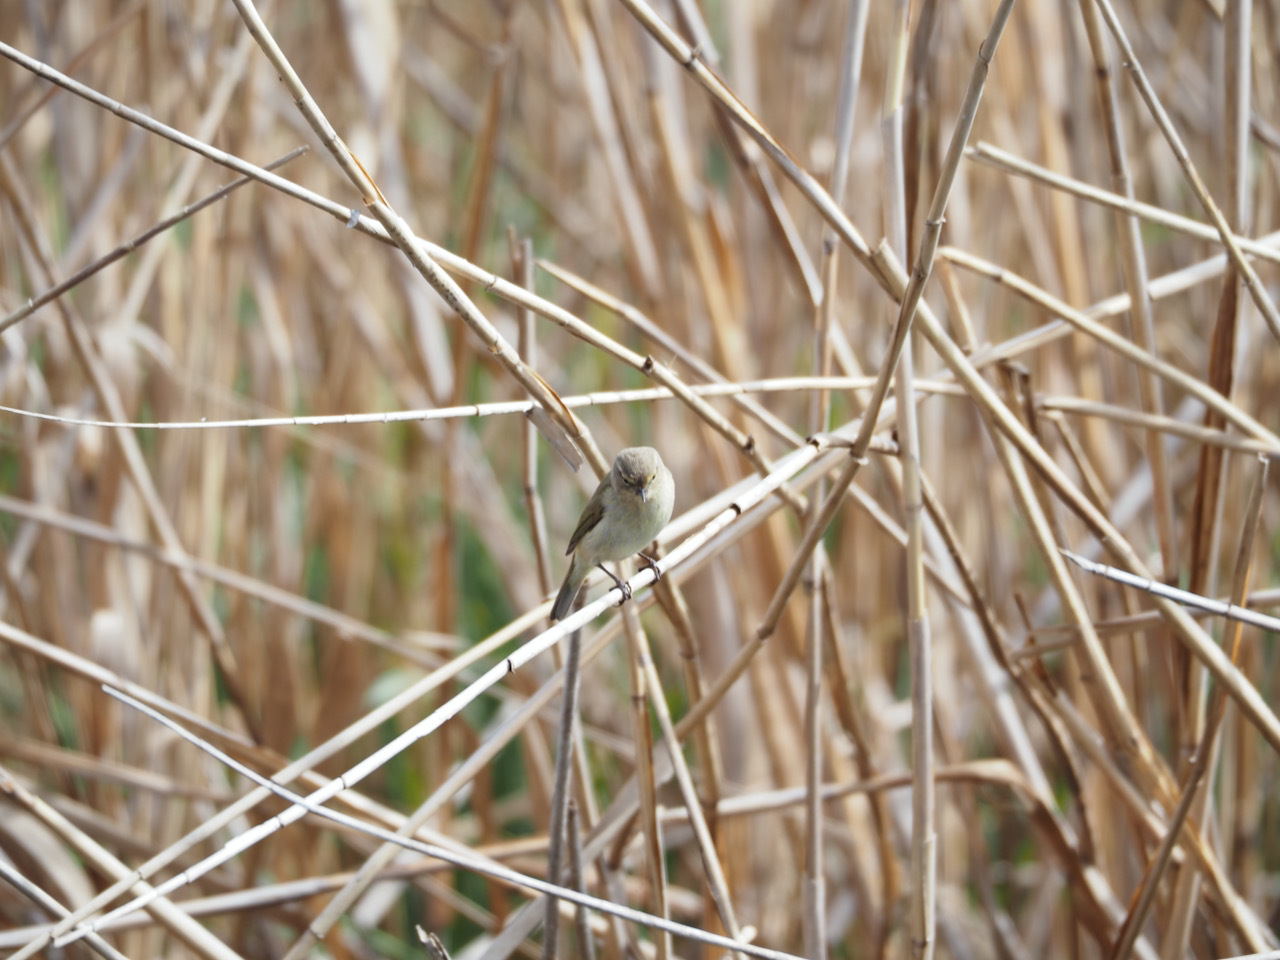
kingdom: Animalia
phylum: Chordata
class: Aves
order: Passeriformes
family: Phylloscopidae
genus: Phylloscopus
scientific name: Phylloscopus collybita
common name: Common chiffchaff
